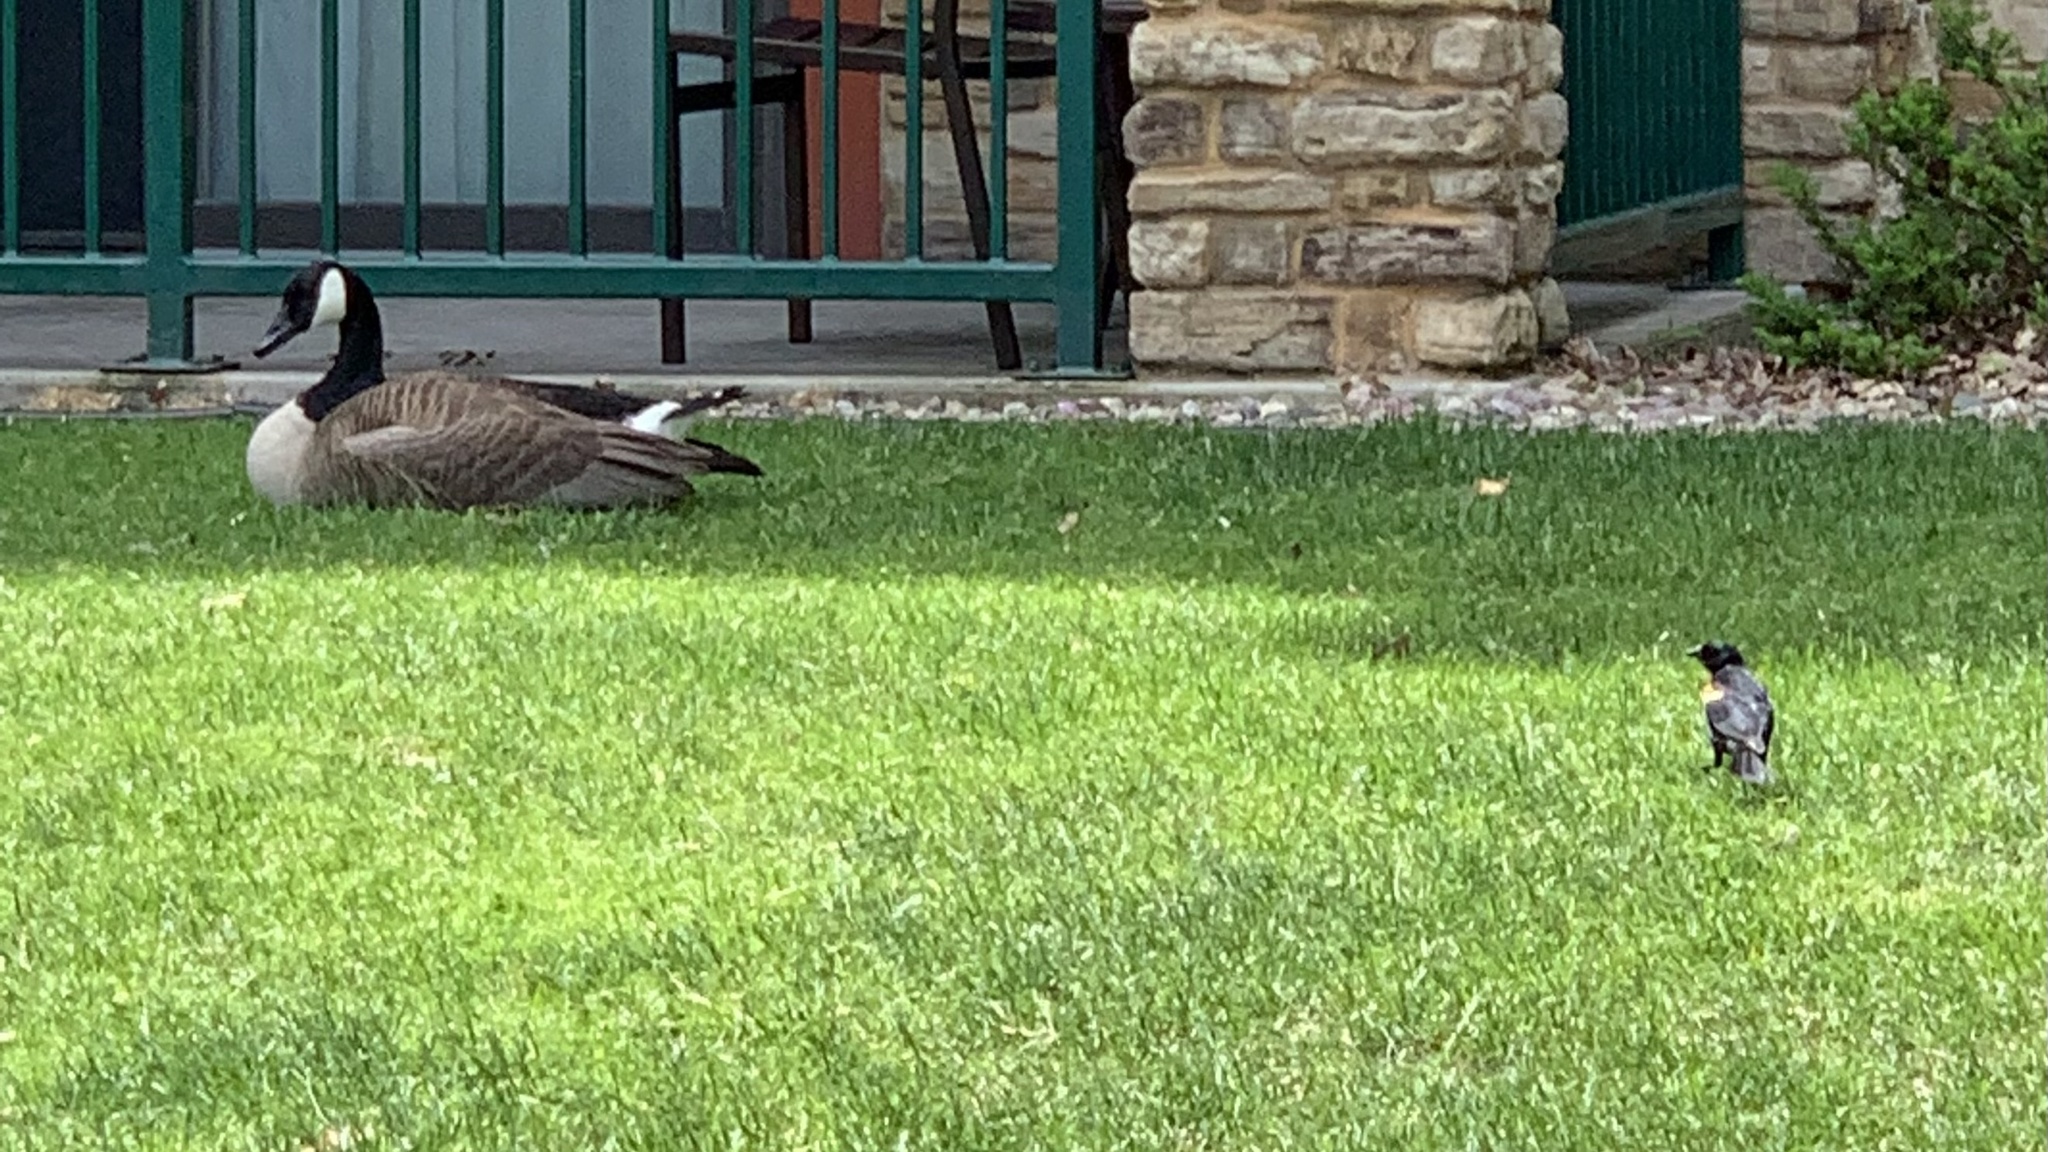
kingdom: Animalia
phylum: Chordata
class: Aves
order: Anseriformes
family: Anatidae
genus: Branta
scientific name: Branta canadensis
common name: Canada goose
